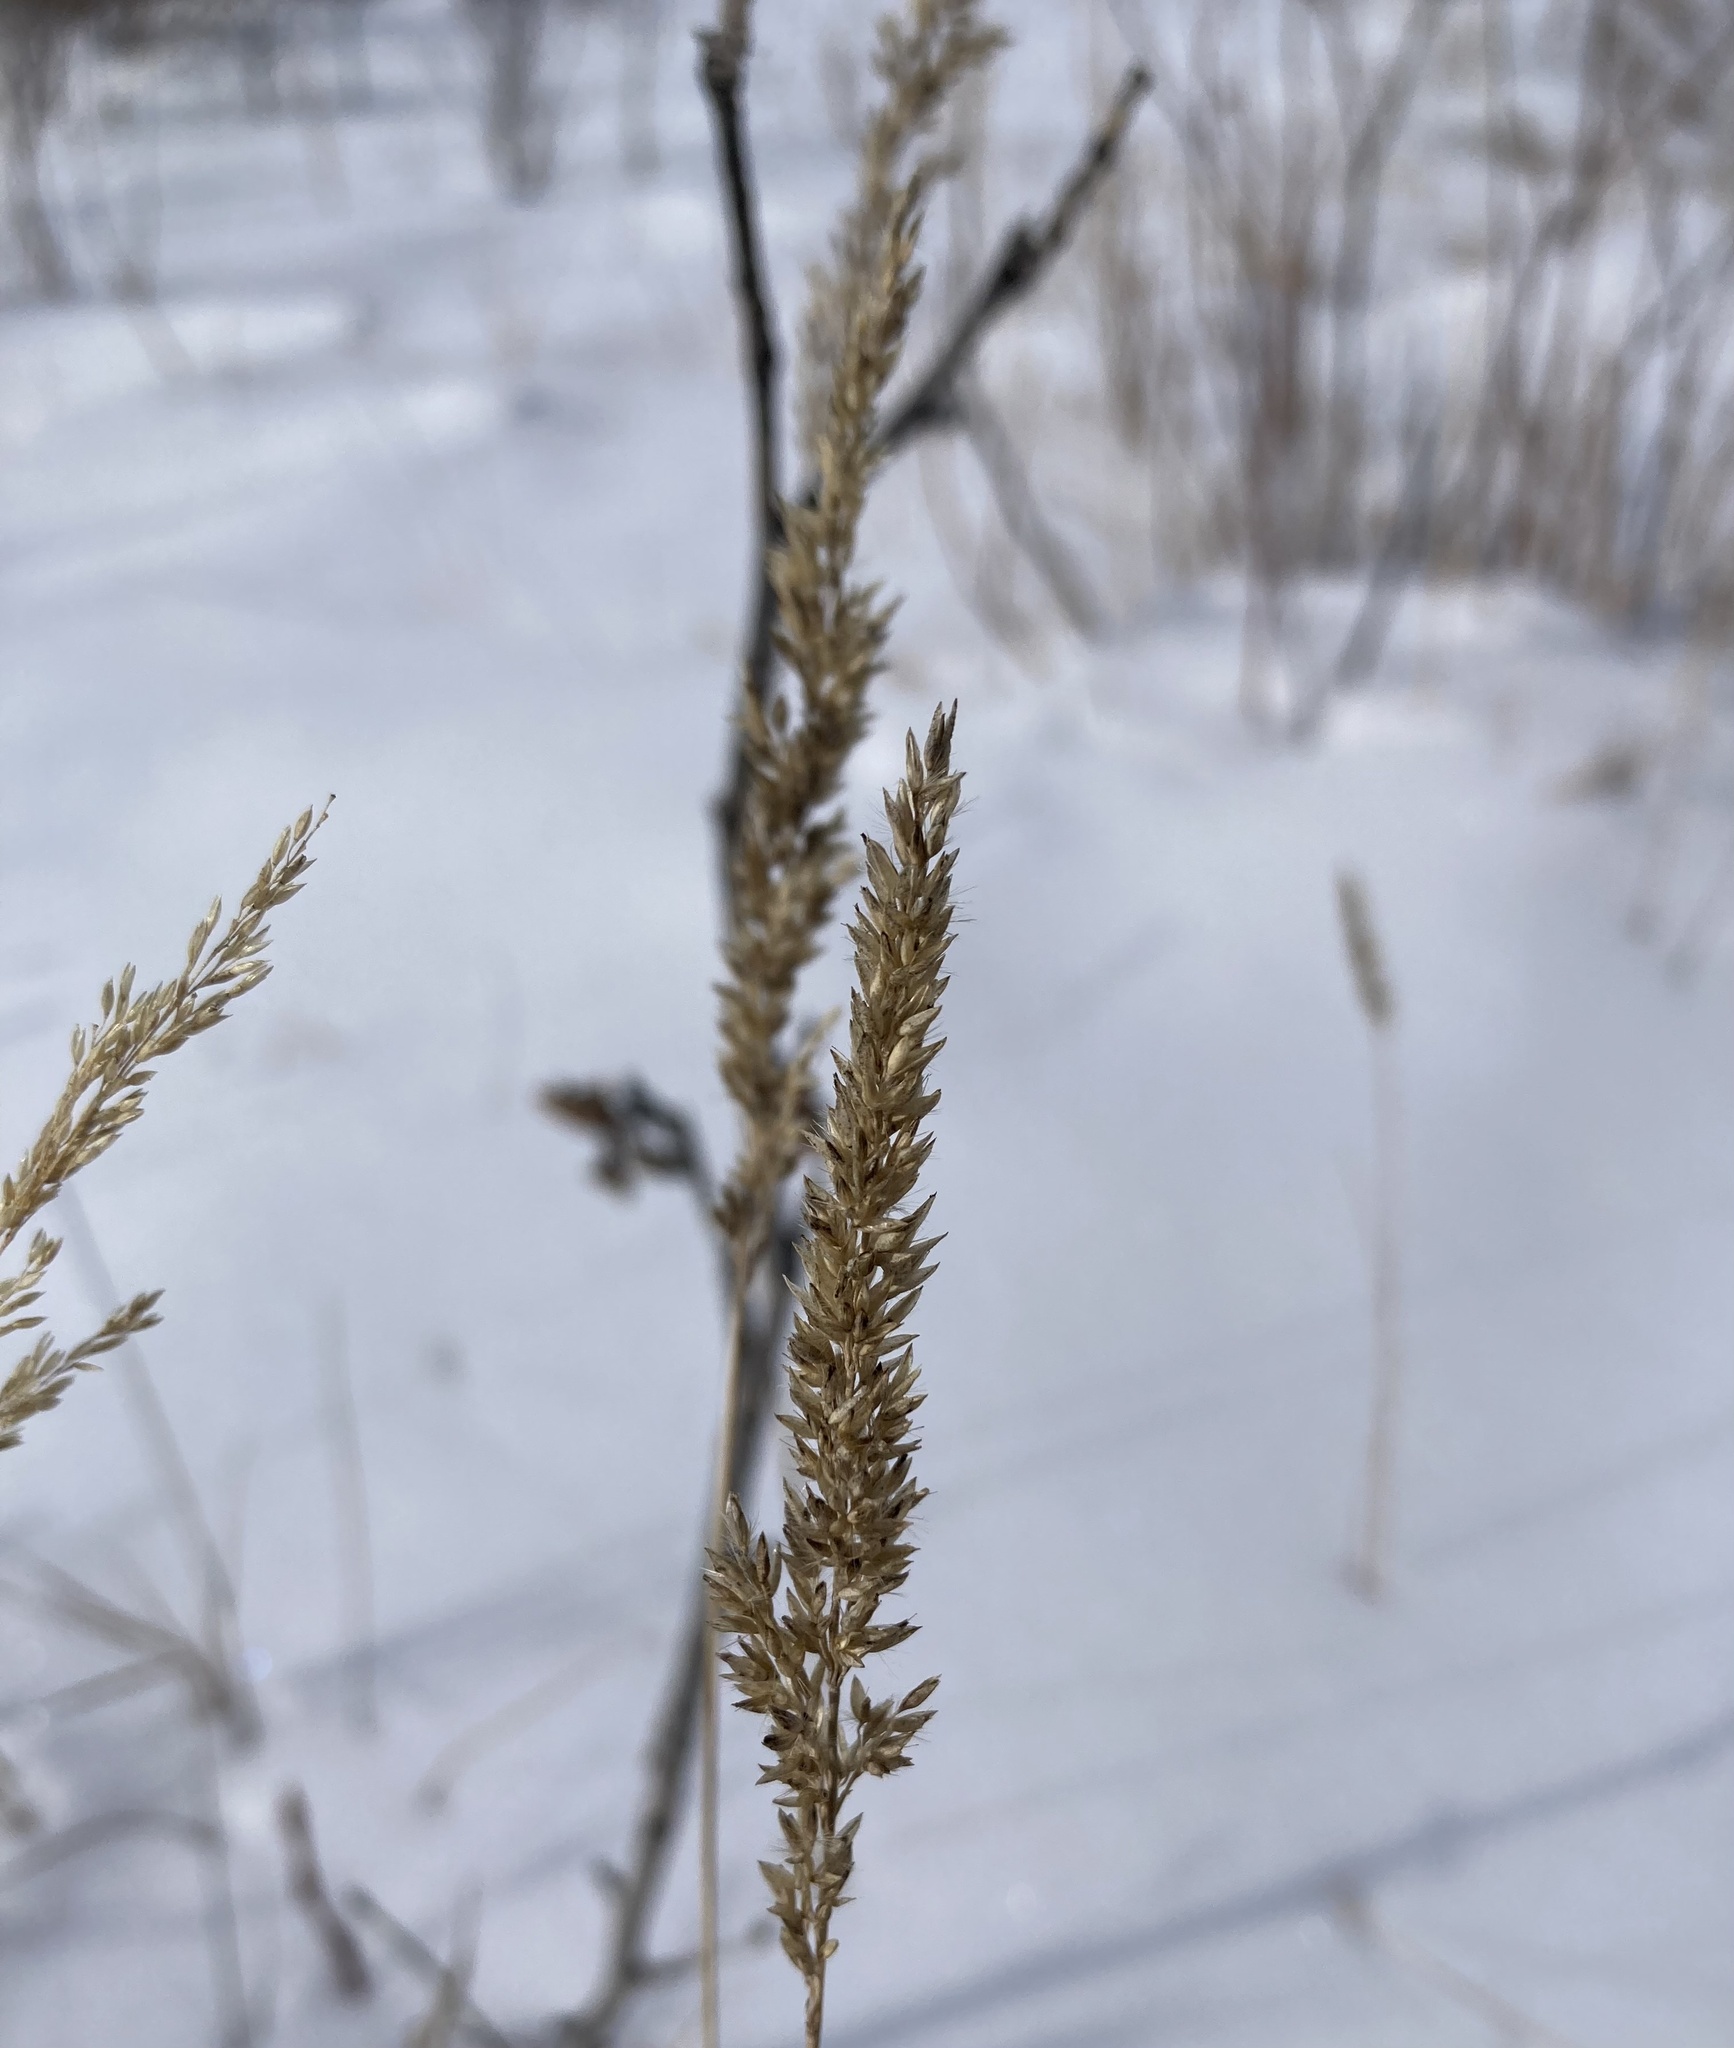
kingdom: Plantae
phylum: Tracheophyta
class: Liliopsida
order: Poales
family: Poaceae
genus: Calamagrostis
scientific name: Calamagrostis stricta
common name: Narrow small-reed
